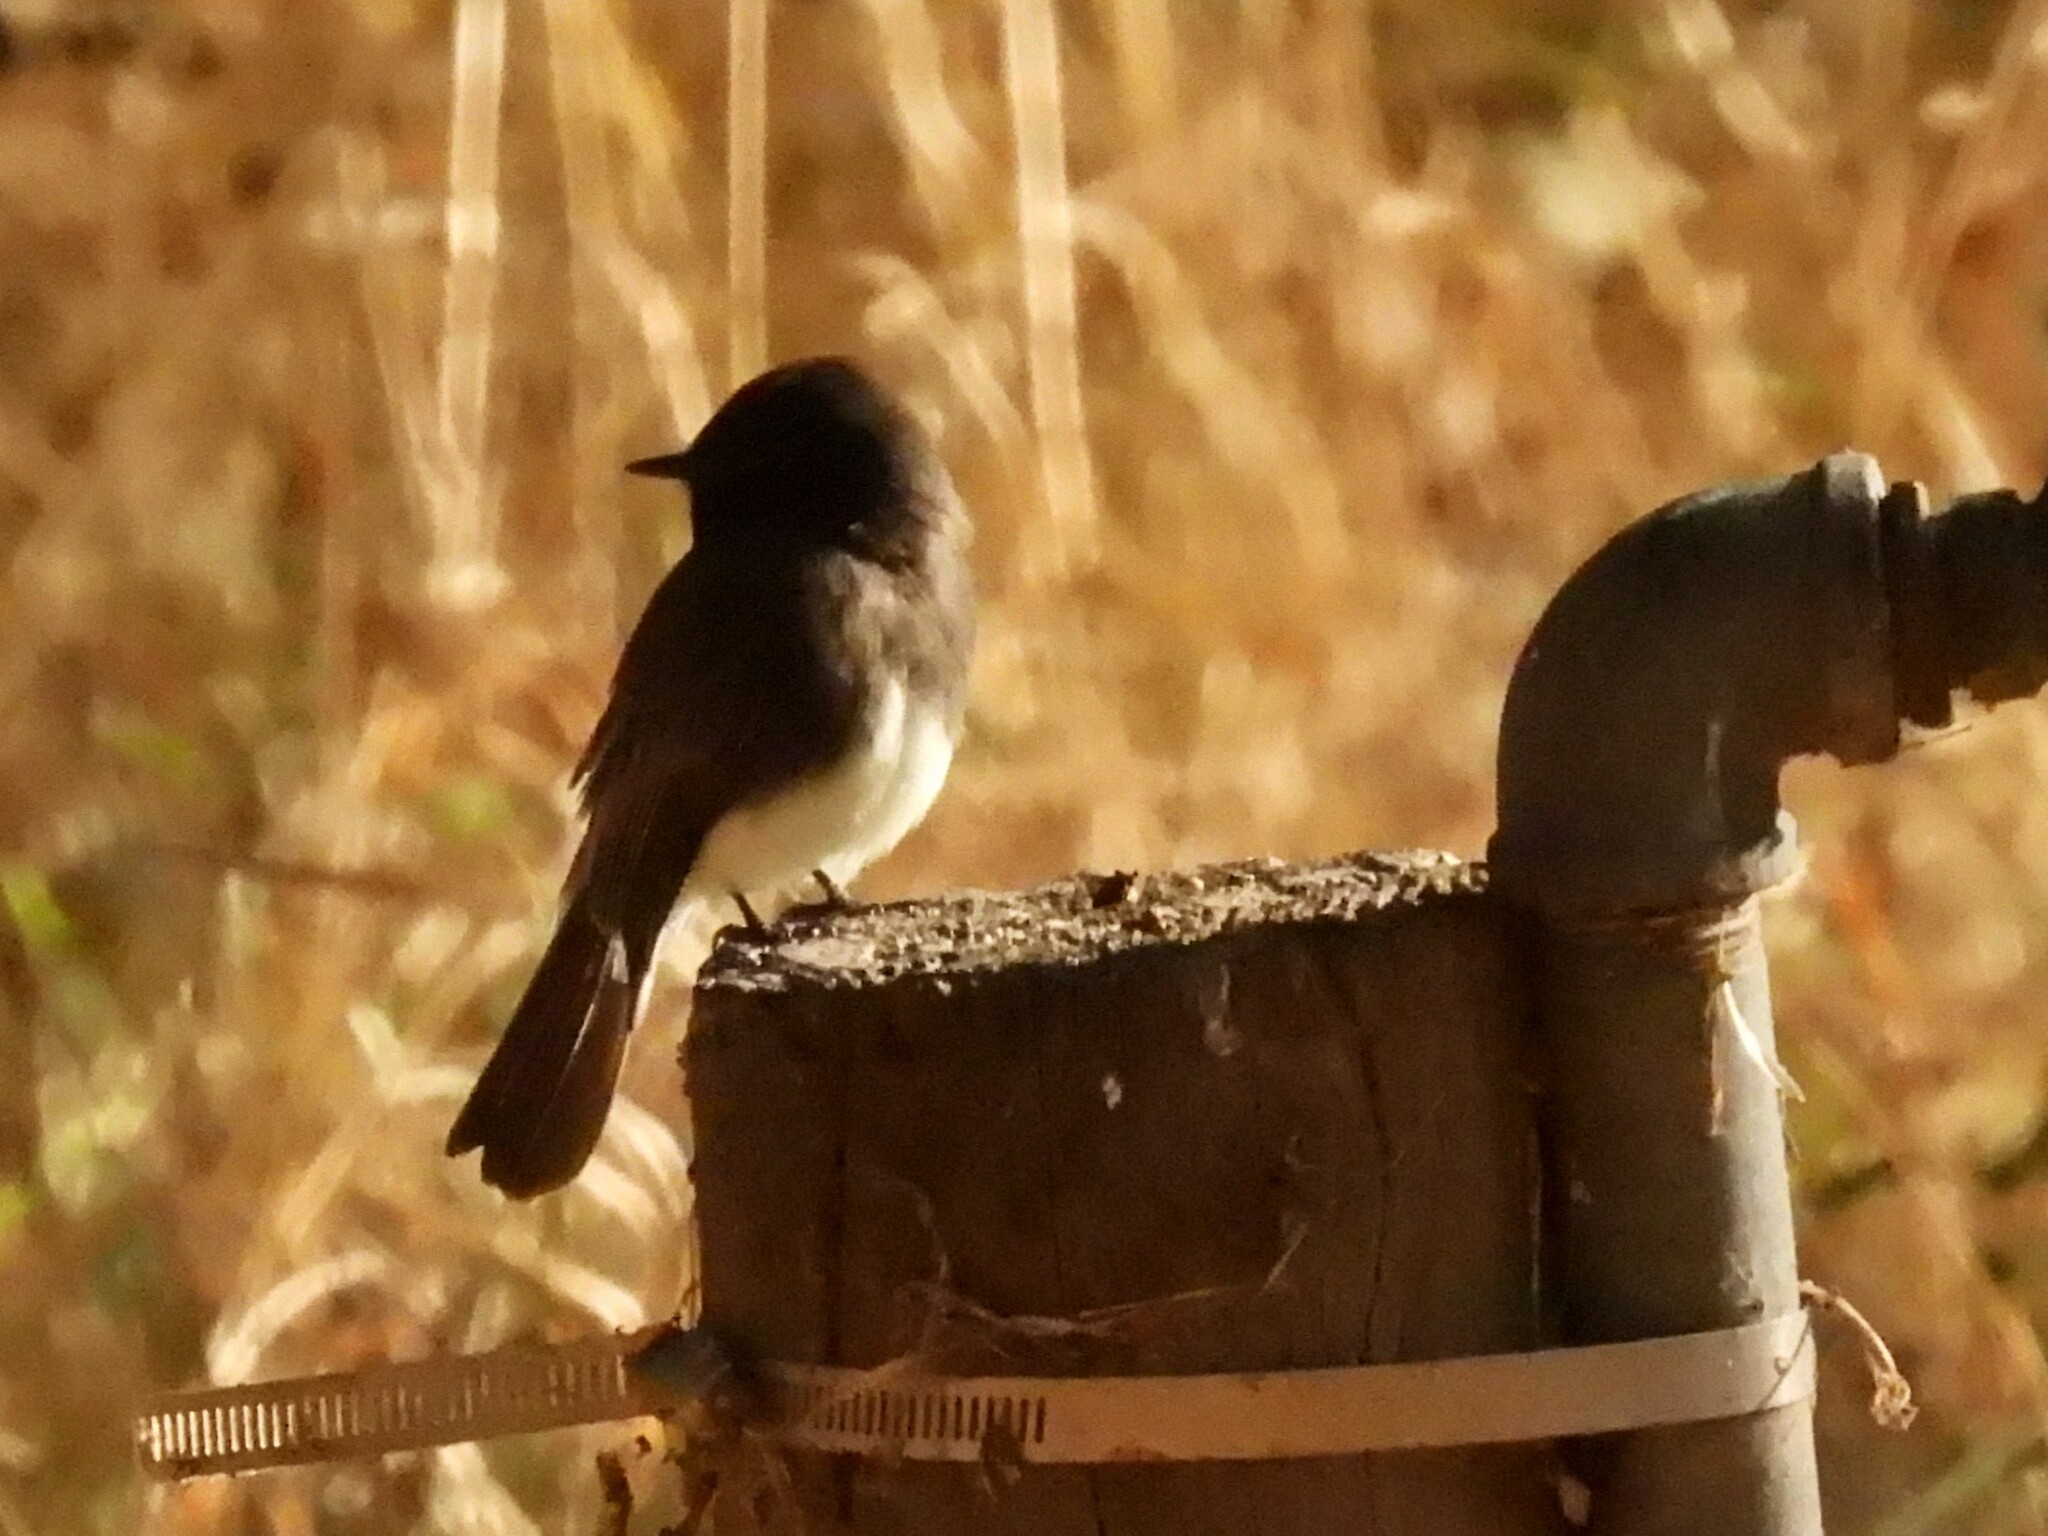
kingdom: Animalia
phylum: Chordata
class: Aves
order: Passeriformes
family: Tyrannidae
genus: Sayornis
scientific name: Sayornis nigricans
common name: Black phoebe
